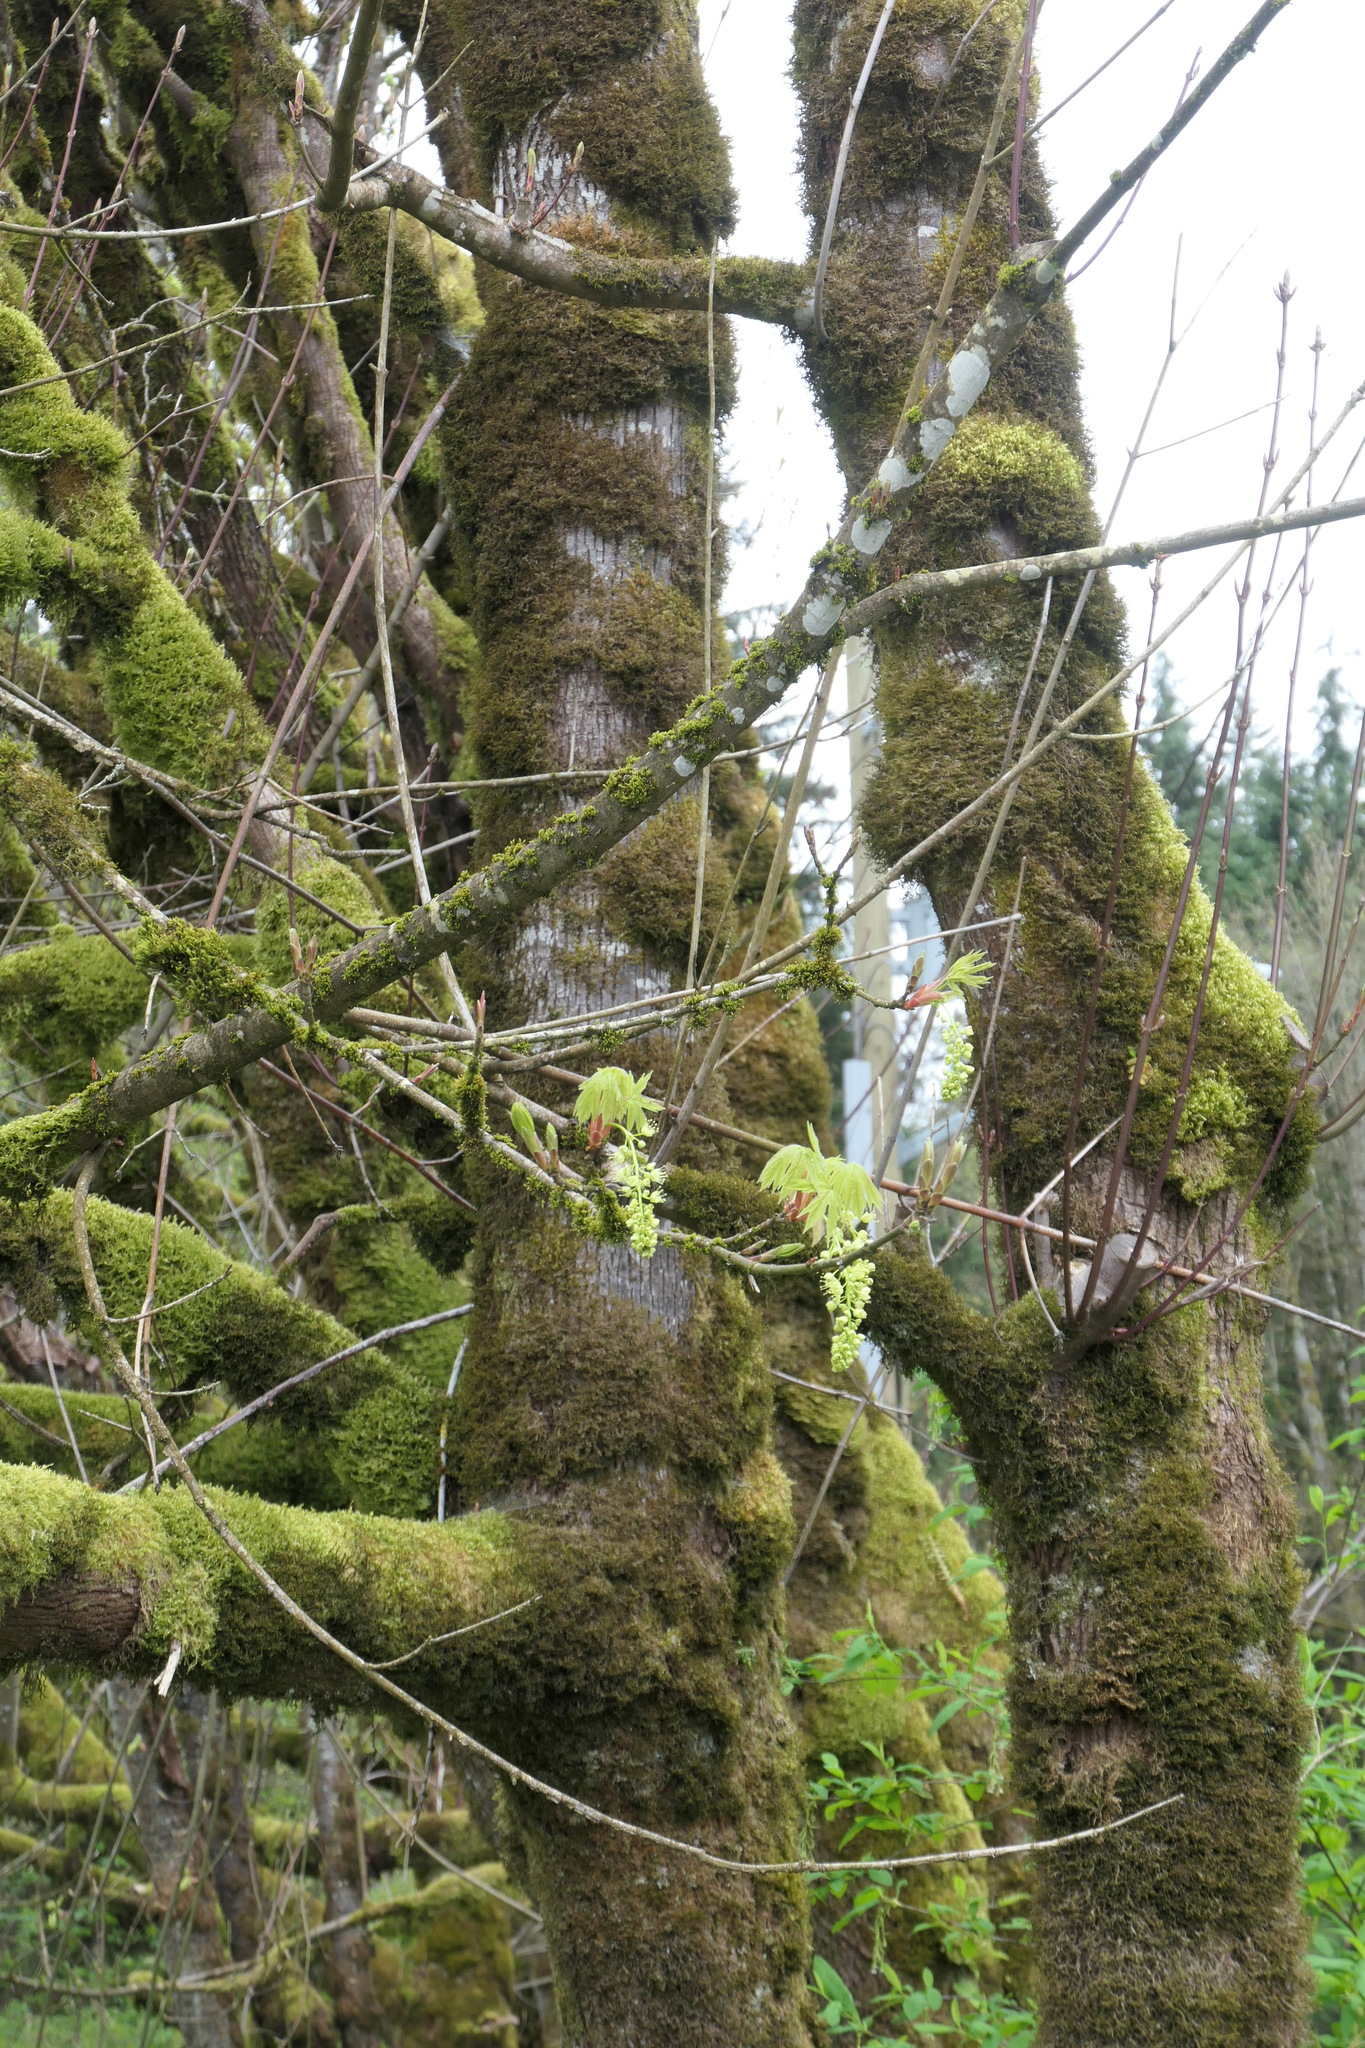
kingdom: Plantae
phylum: Tracheophyta
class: Magnoliopsida
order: Sapindales
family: Sapindaceae
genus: Acer
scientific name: Acer macrophyllum
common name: Oregon maple
